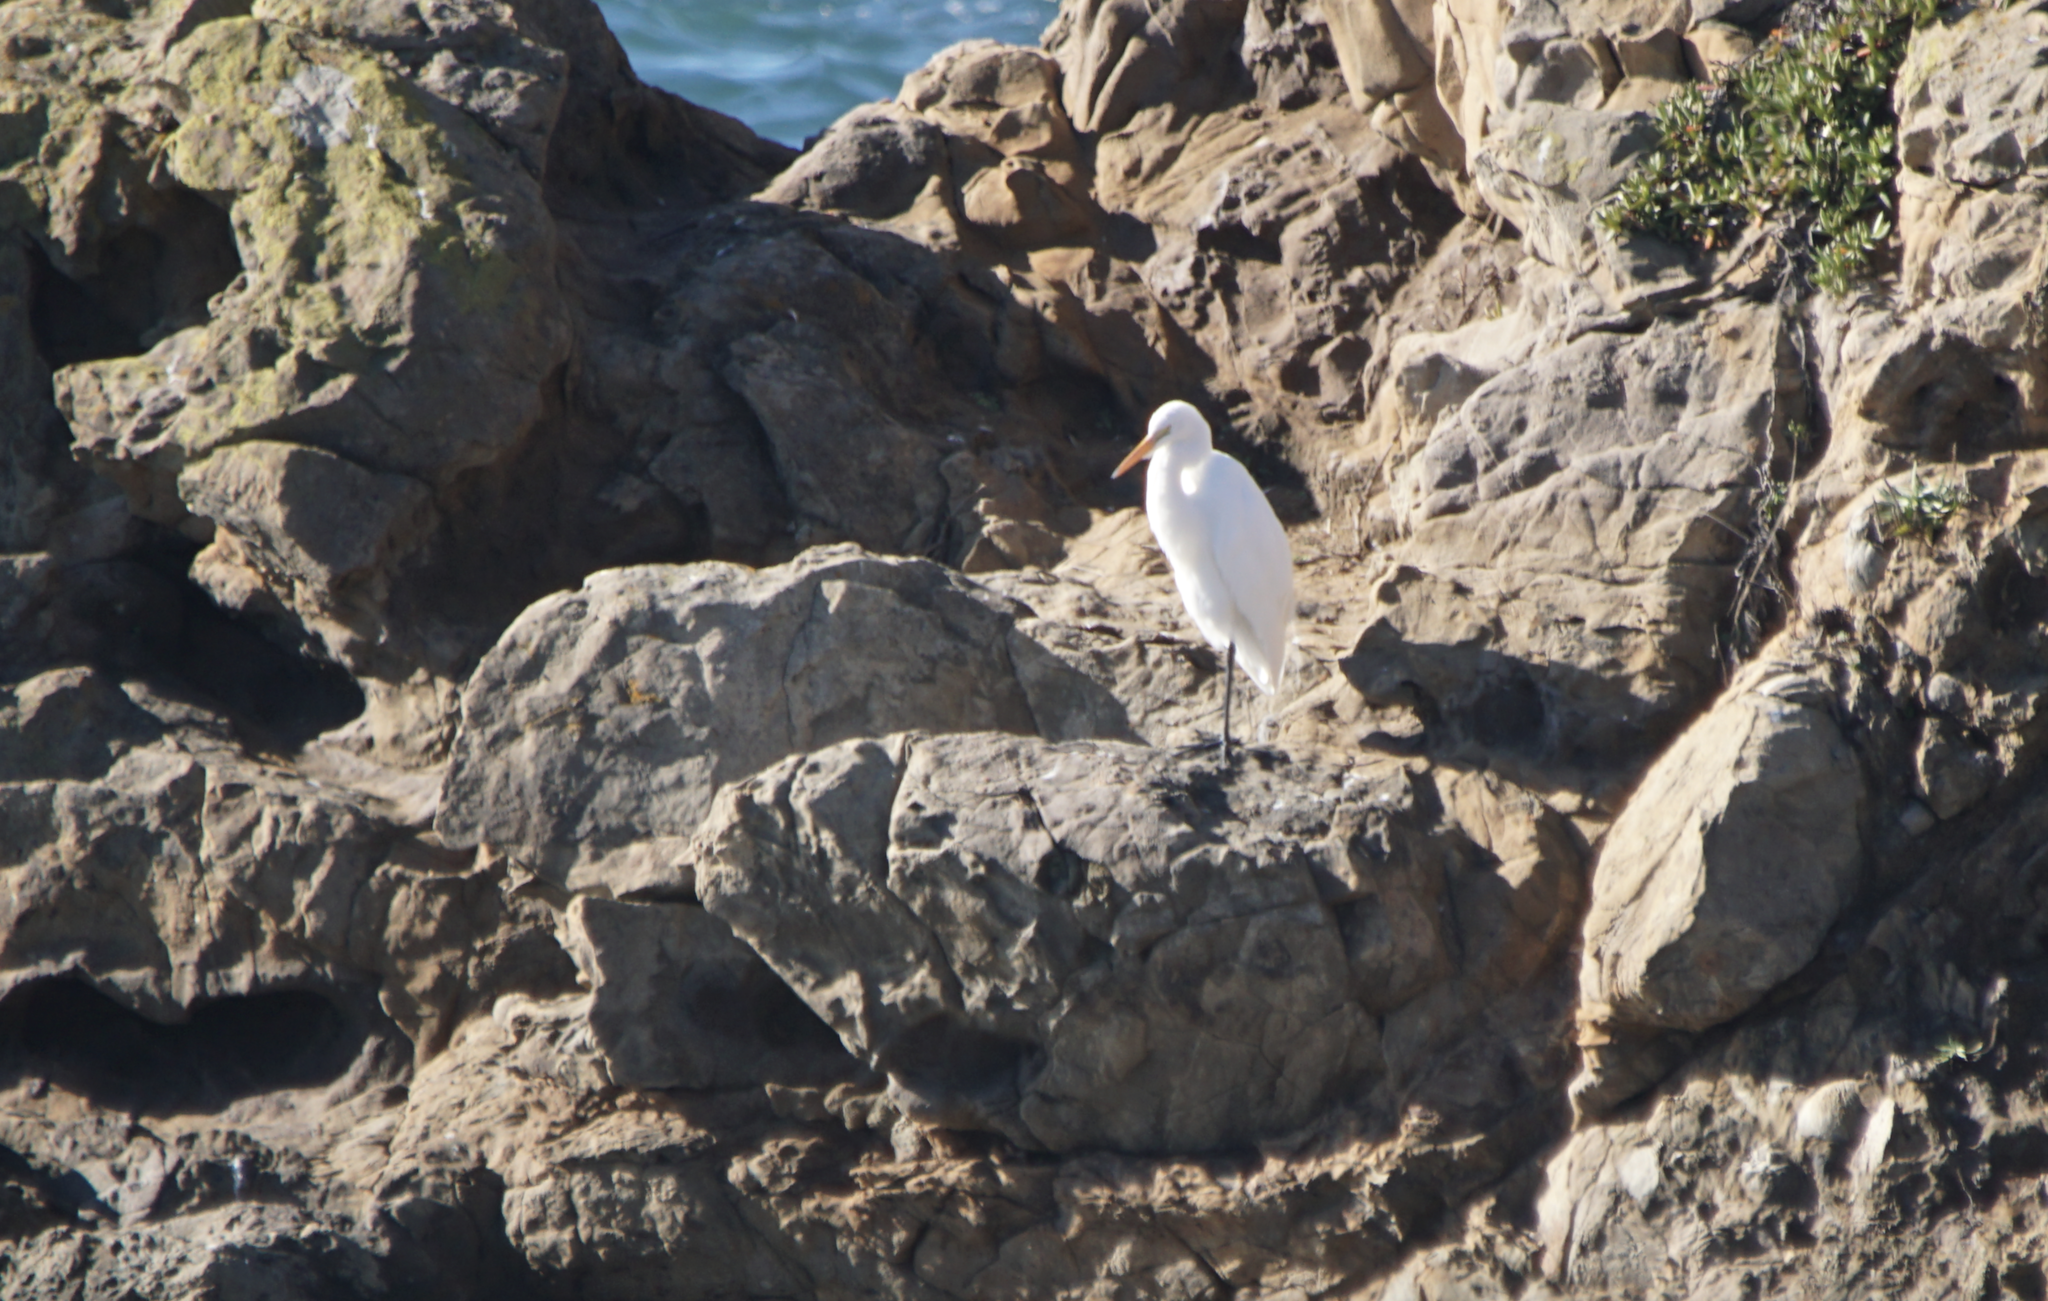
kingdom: Animalia
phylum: Chordata
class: Aves
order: Pelecaniformes
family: Ardeidae
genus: Ardea
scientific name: Ardea alba
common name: Great egret
